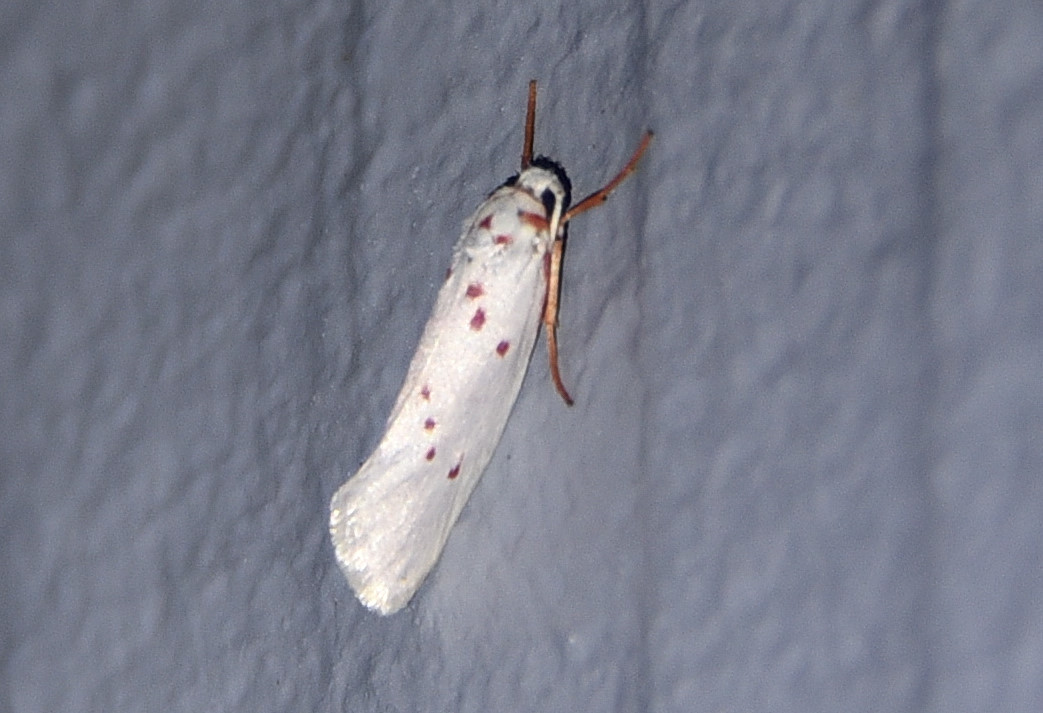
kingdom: Animalia
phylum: Arthropoda
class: Insecta
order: Lepidoptera
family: Lacturidae
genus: Lactura
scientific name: Lactura
